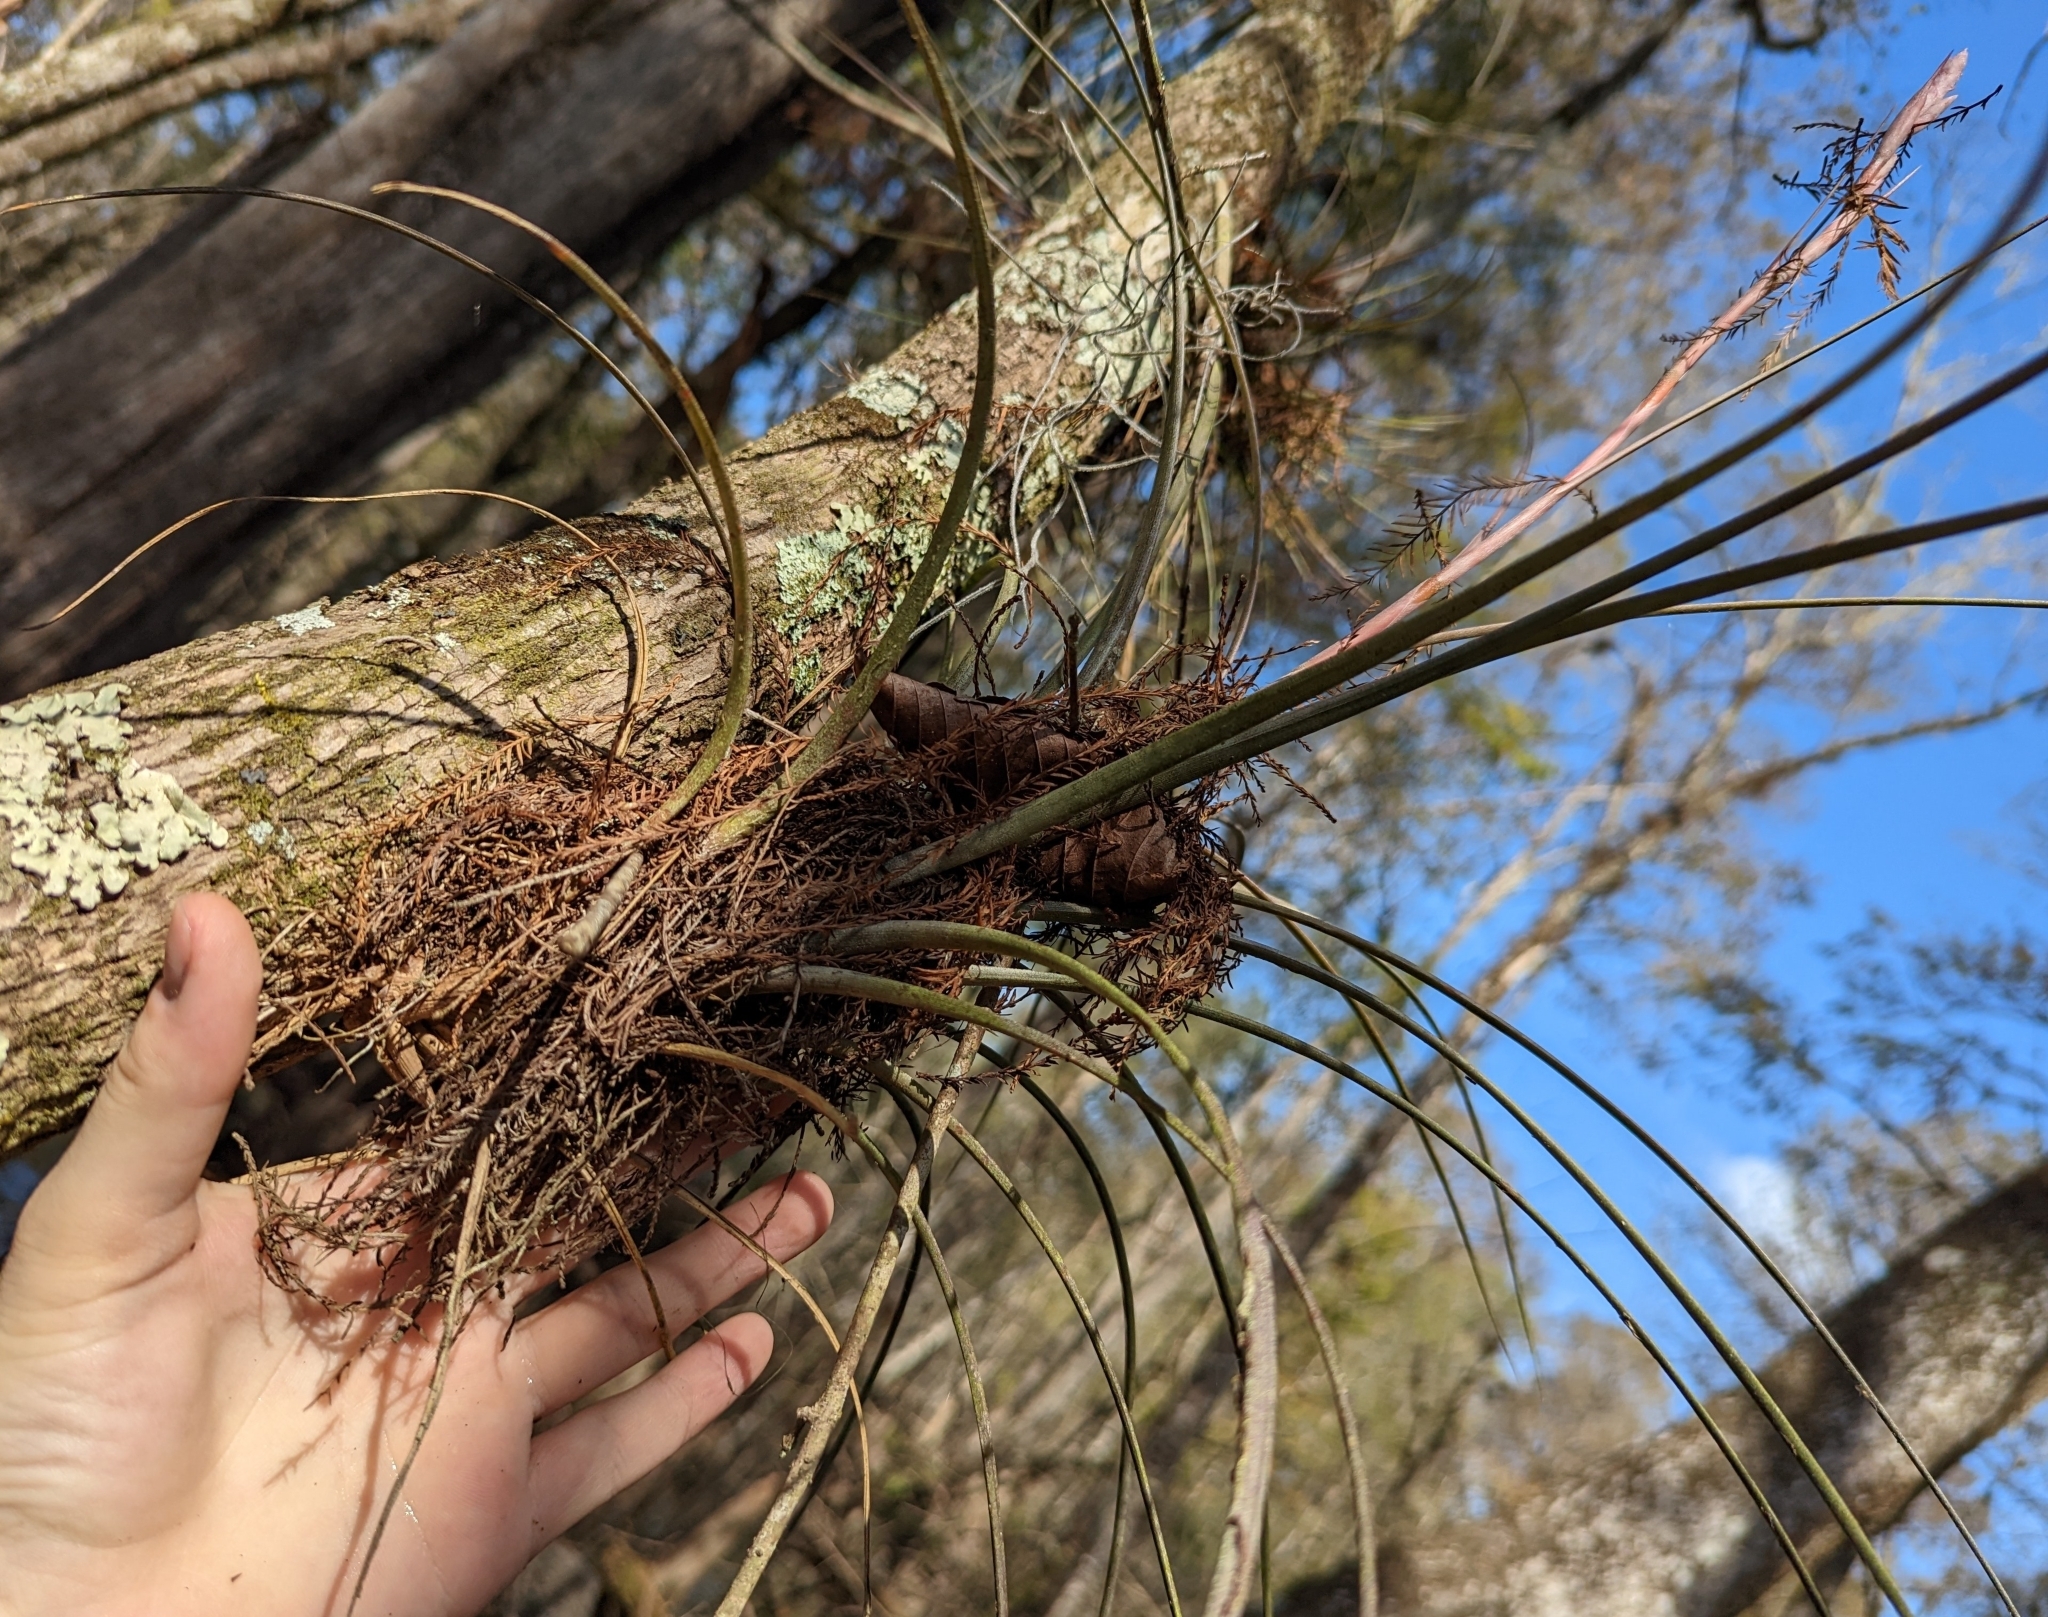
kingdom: Plantae
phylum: Tracheophyta
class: Liliopsida
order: Poales
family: Bromeliaceae
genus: Tillandsia
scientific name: Tillandsia simulata
